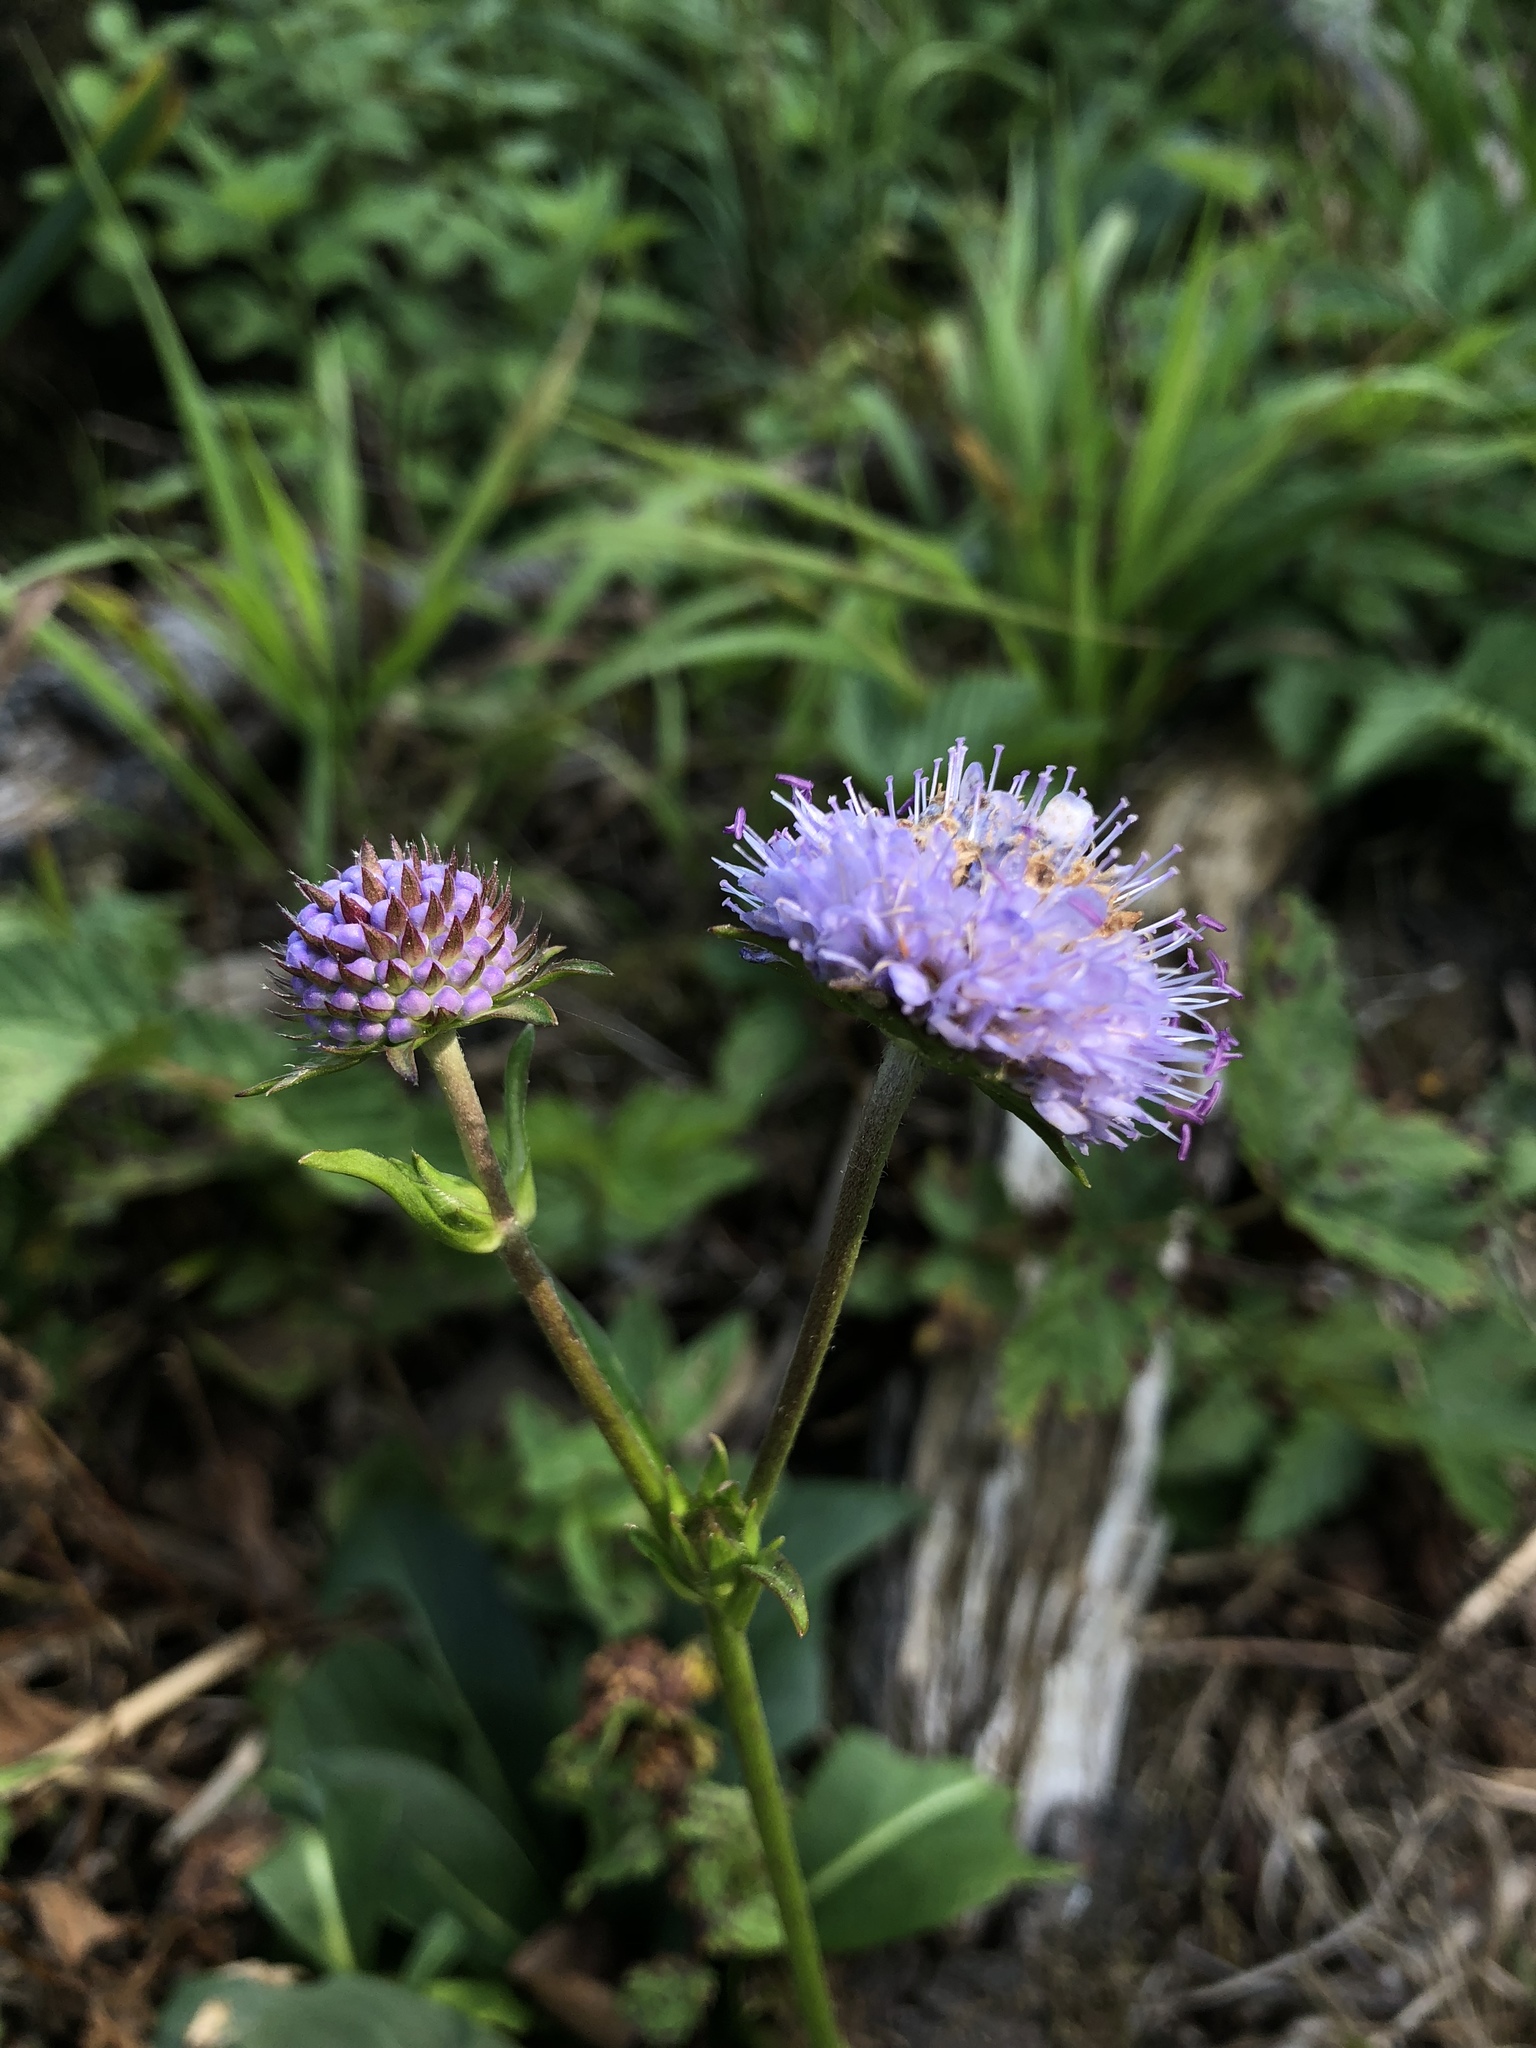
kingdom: Plantae
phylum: Tracheophyta
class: Magnoliopsida
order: Dipsacales
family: Caprifoliaceae
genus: Succisa
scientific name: Succisa pratensis
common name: Devil's-bit
